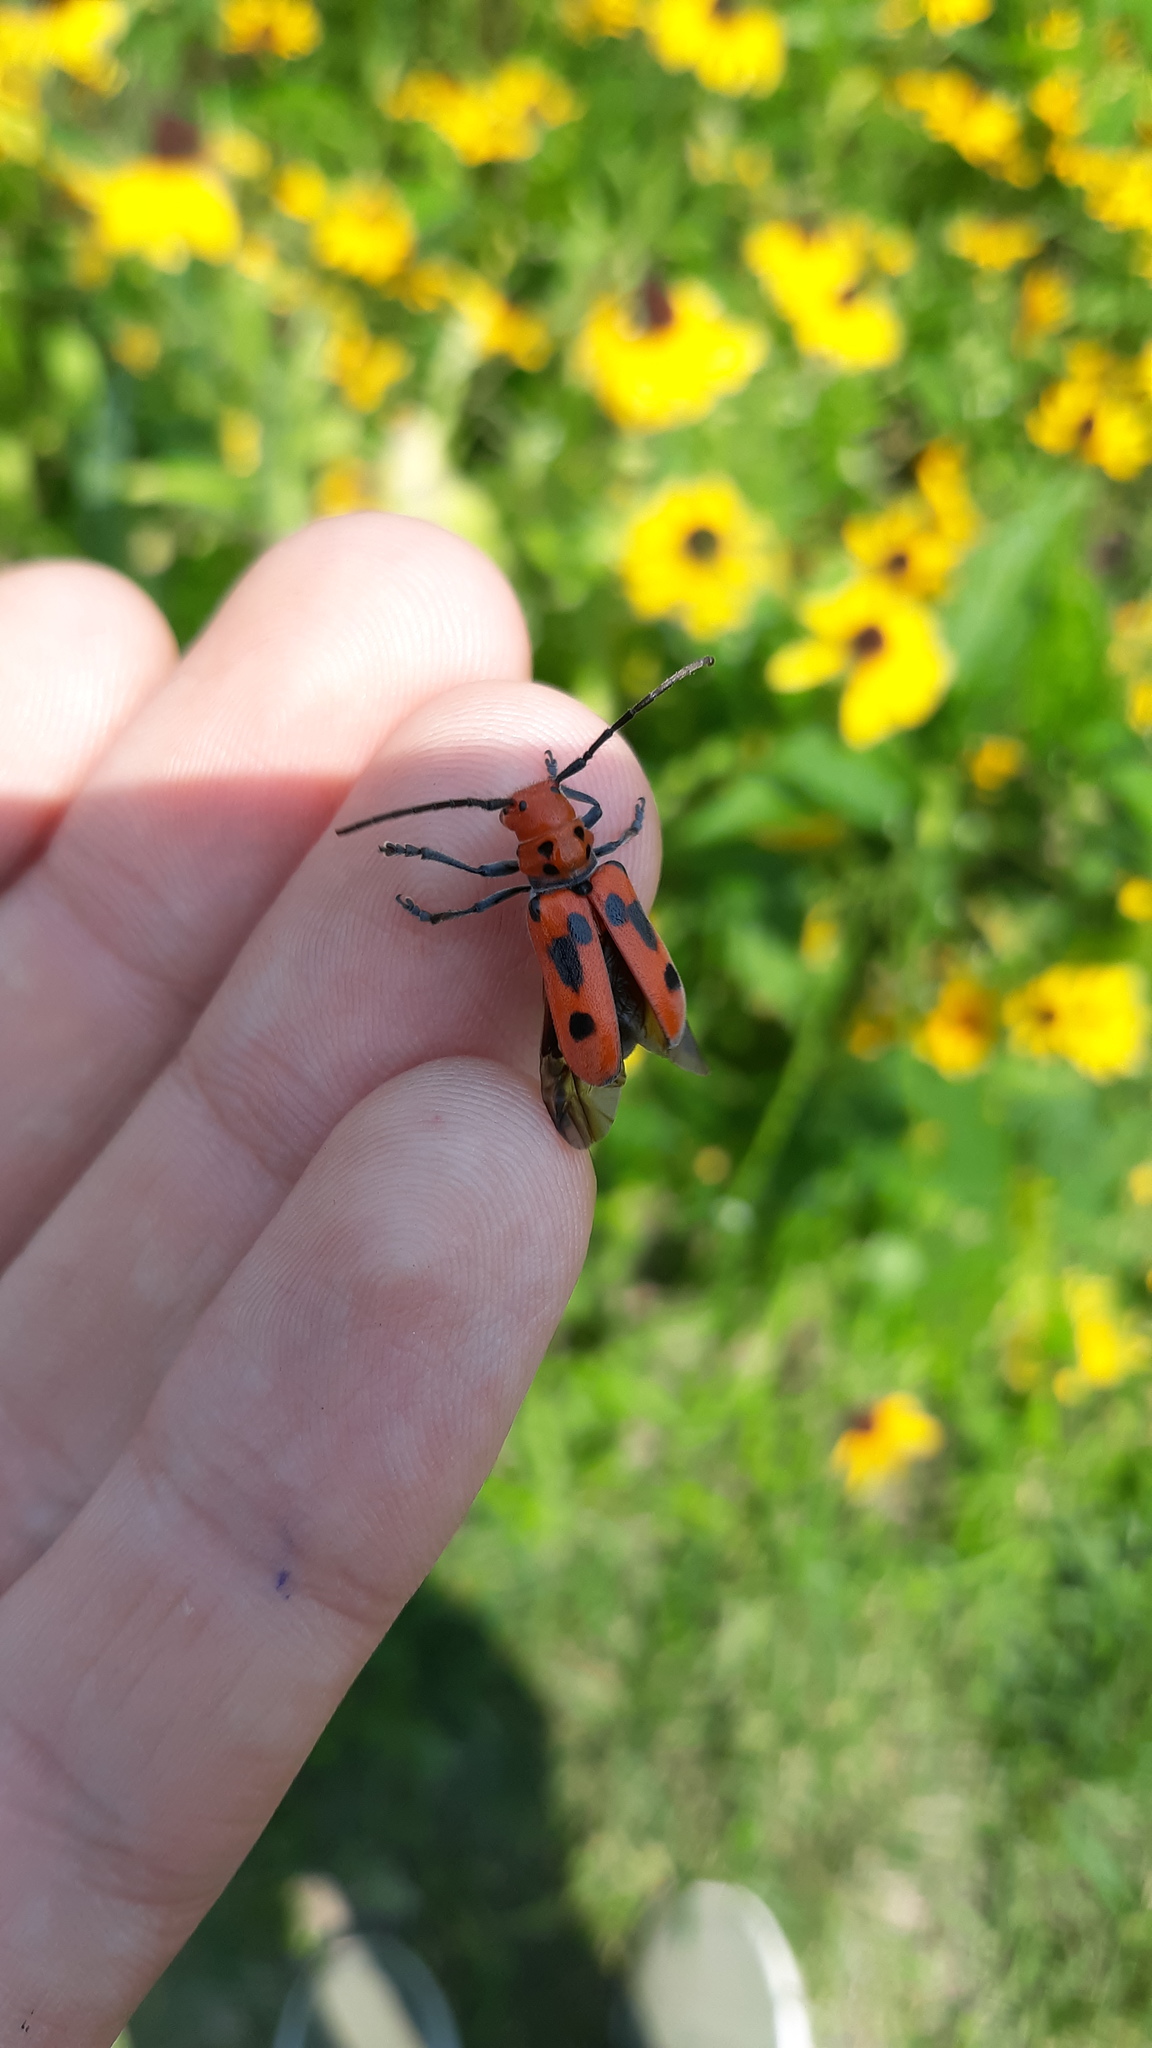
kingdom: Animalia
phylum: Arthropoda
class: Insecta
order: Coleoptera
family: Cerambycidae
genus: Tetraopes
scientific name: Tetraopes tetrophthalmus
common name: Red milkweed beetle
